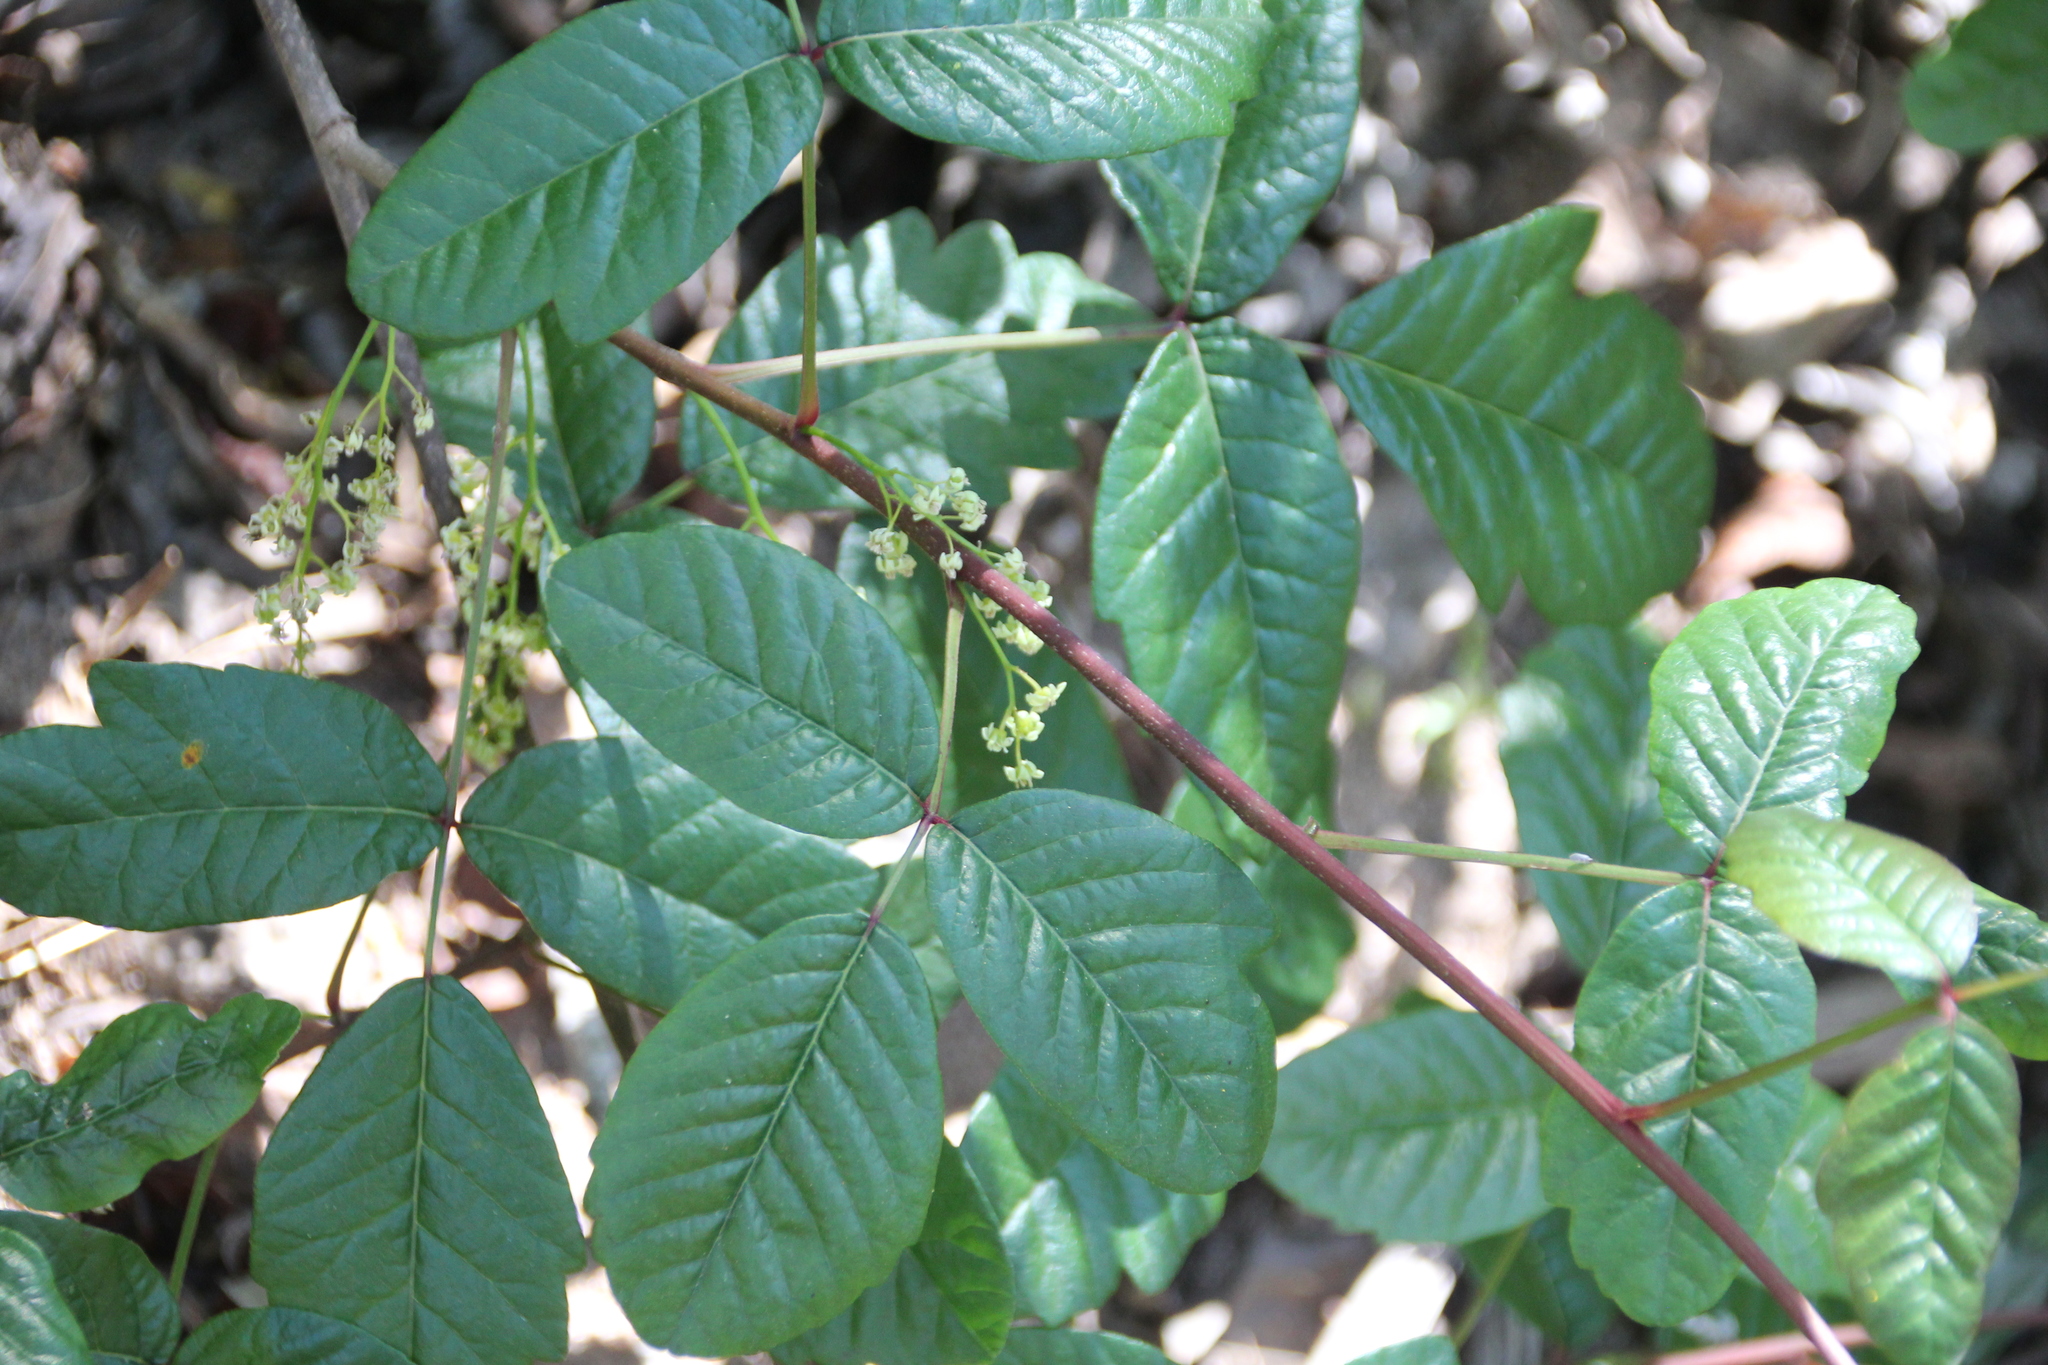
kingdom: Plantae
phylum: Tracheophyta
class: Magnoliopsida
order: Sapindales
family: Anacardiaceae
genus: Toxicodendron
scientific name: Toxicodendron diversilobum
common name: Pacific poison-oak
